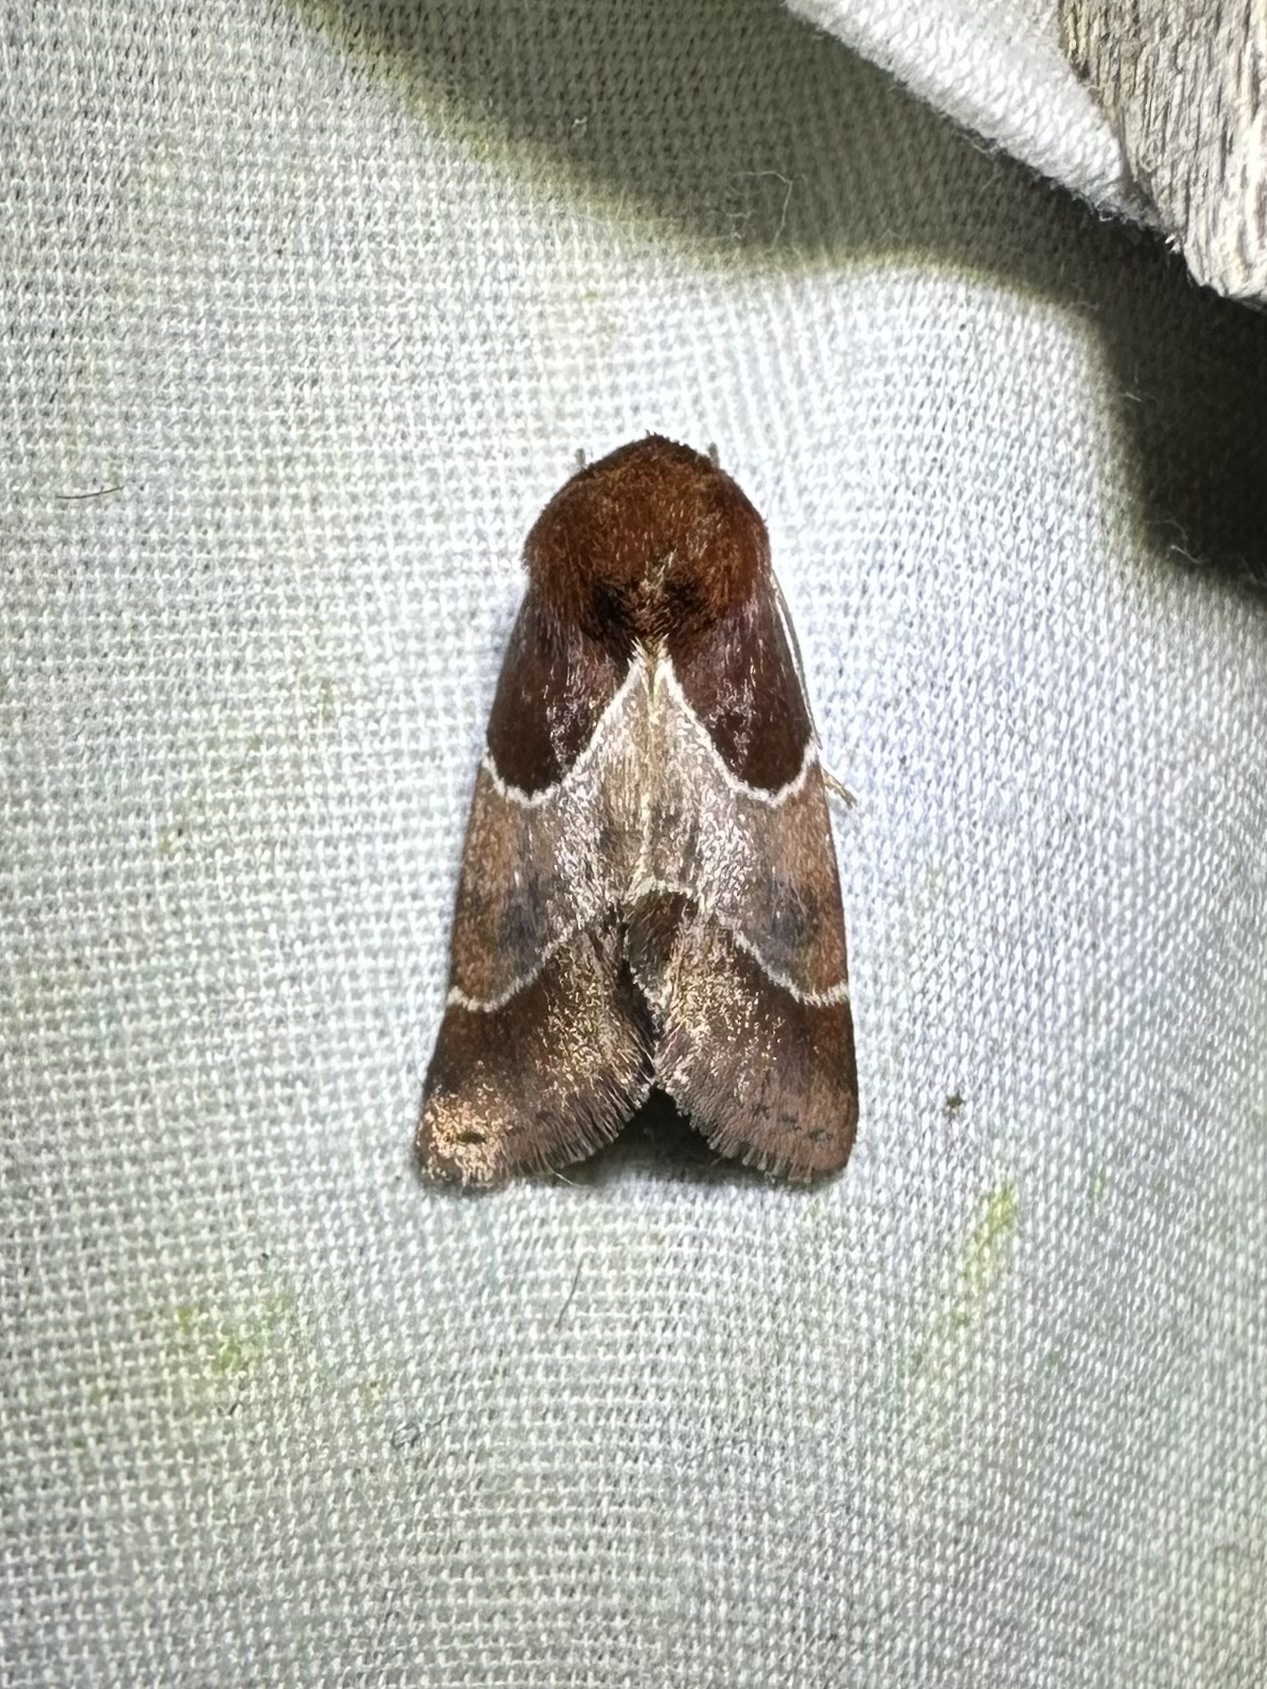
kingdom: Animalia
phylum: Arthropoda
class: Insecta
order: Lepidoptera
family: Noctuidae
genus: Schinia
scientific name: Schinia arcigera
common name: Arcigera flower moth
